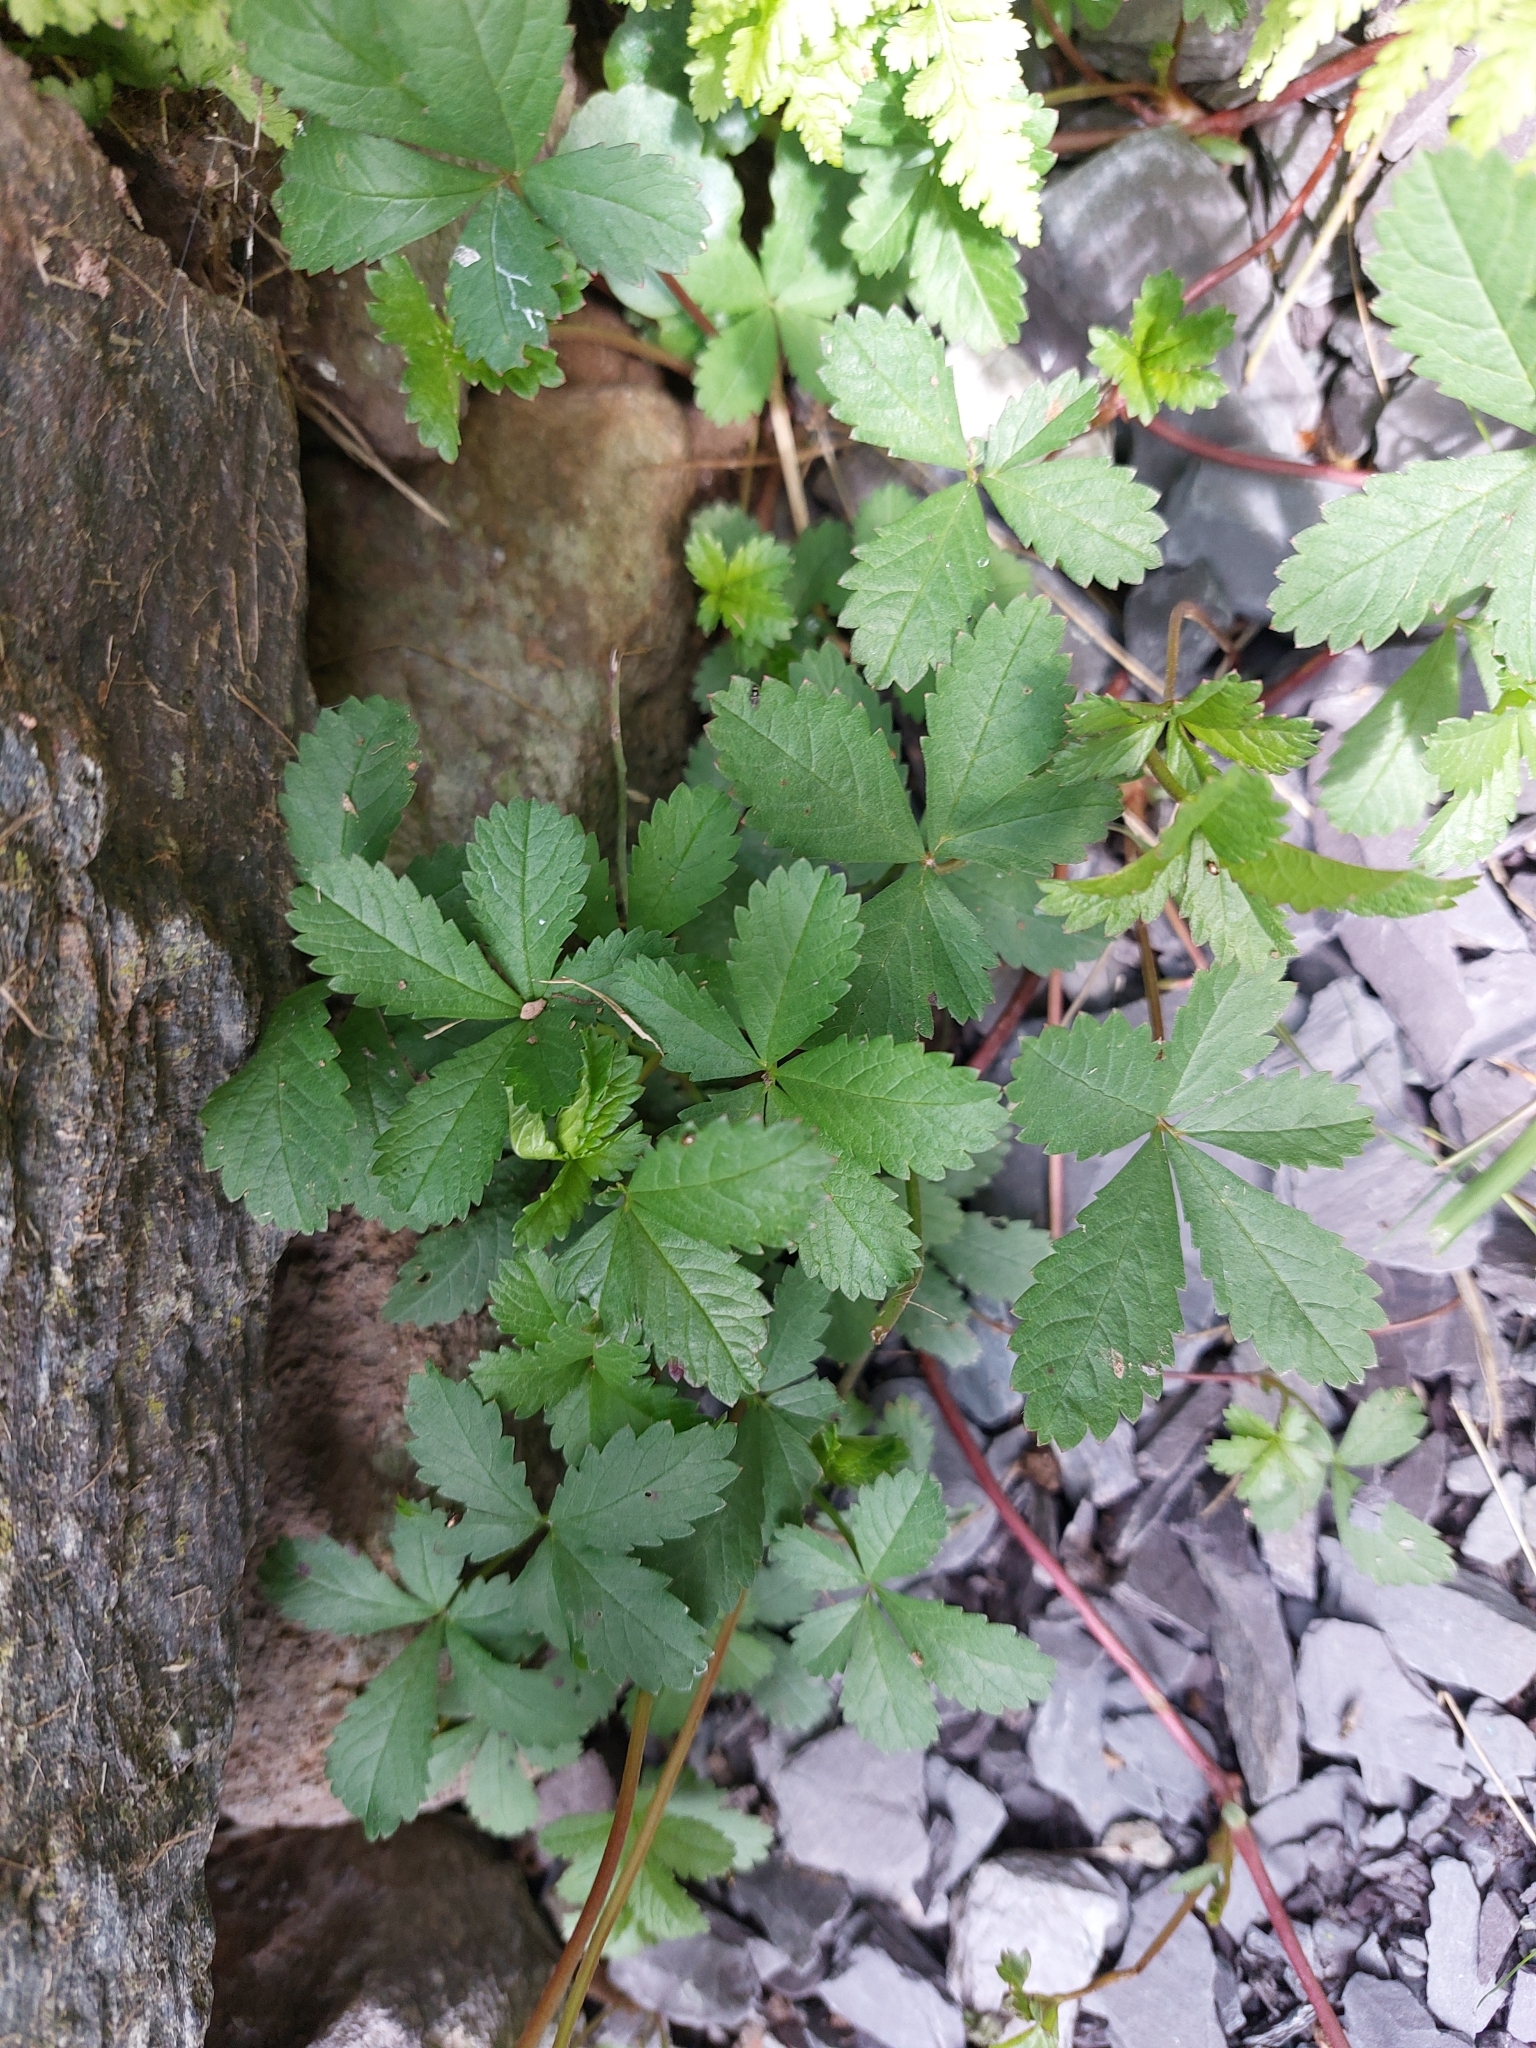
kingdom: Plantae
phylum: Tracheophyta
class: Magnoliopsida
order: Rosales
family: Rosaceae
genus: Potentilla
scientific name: Potentilla reptans
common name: Creeping cinquefoil
